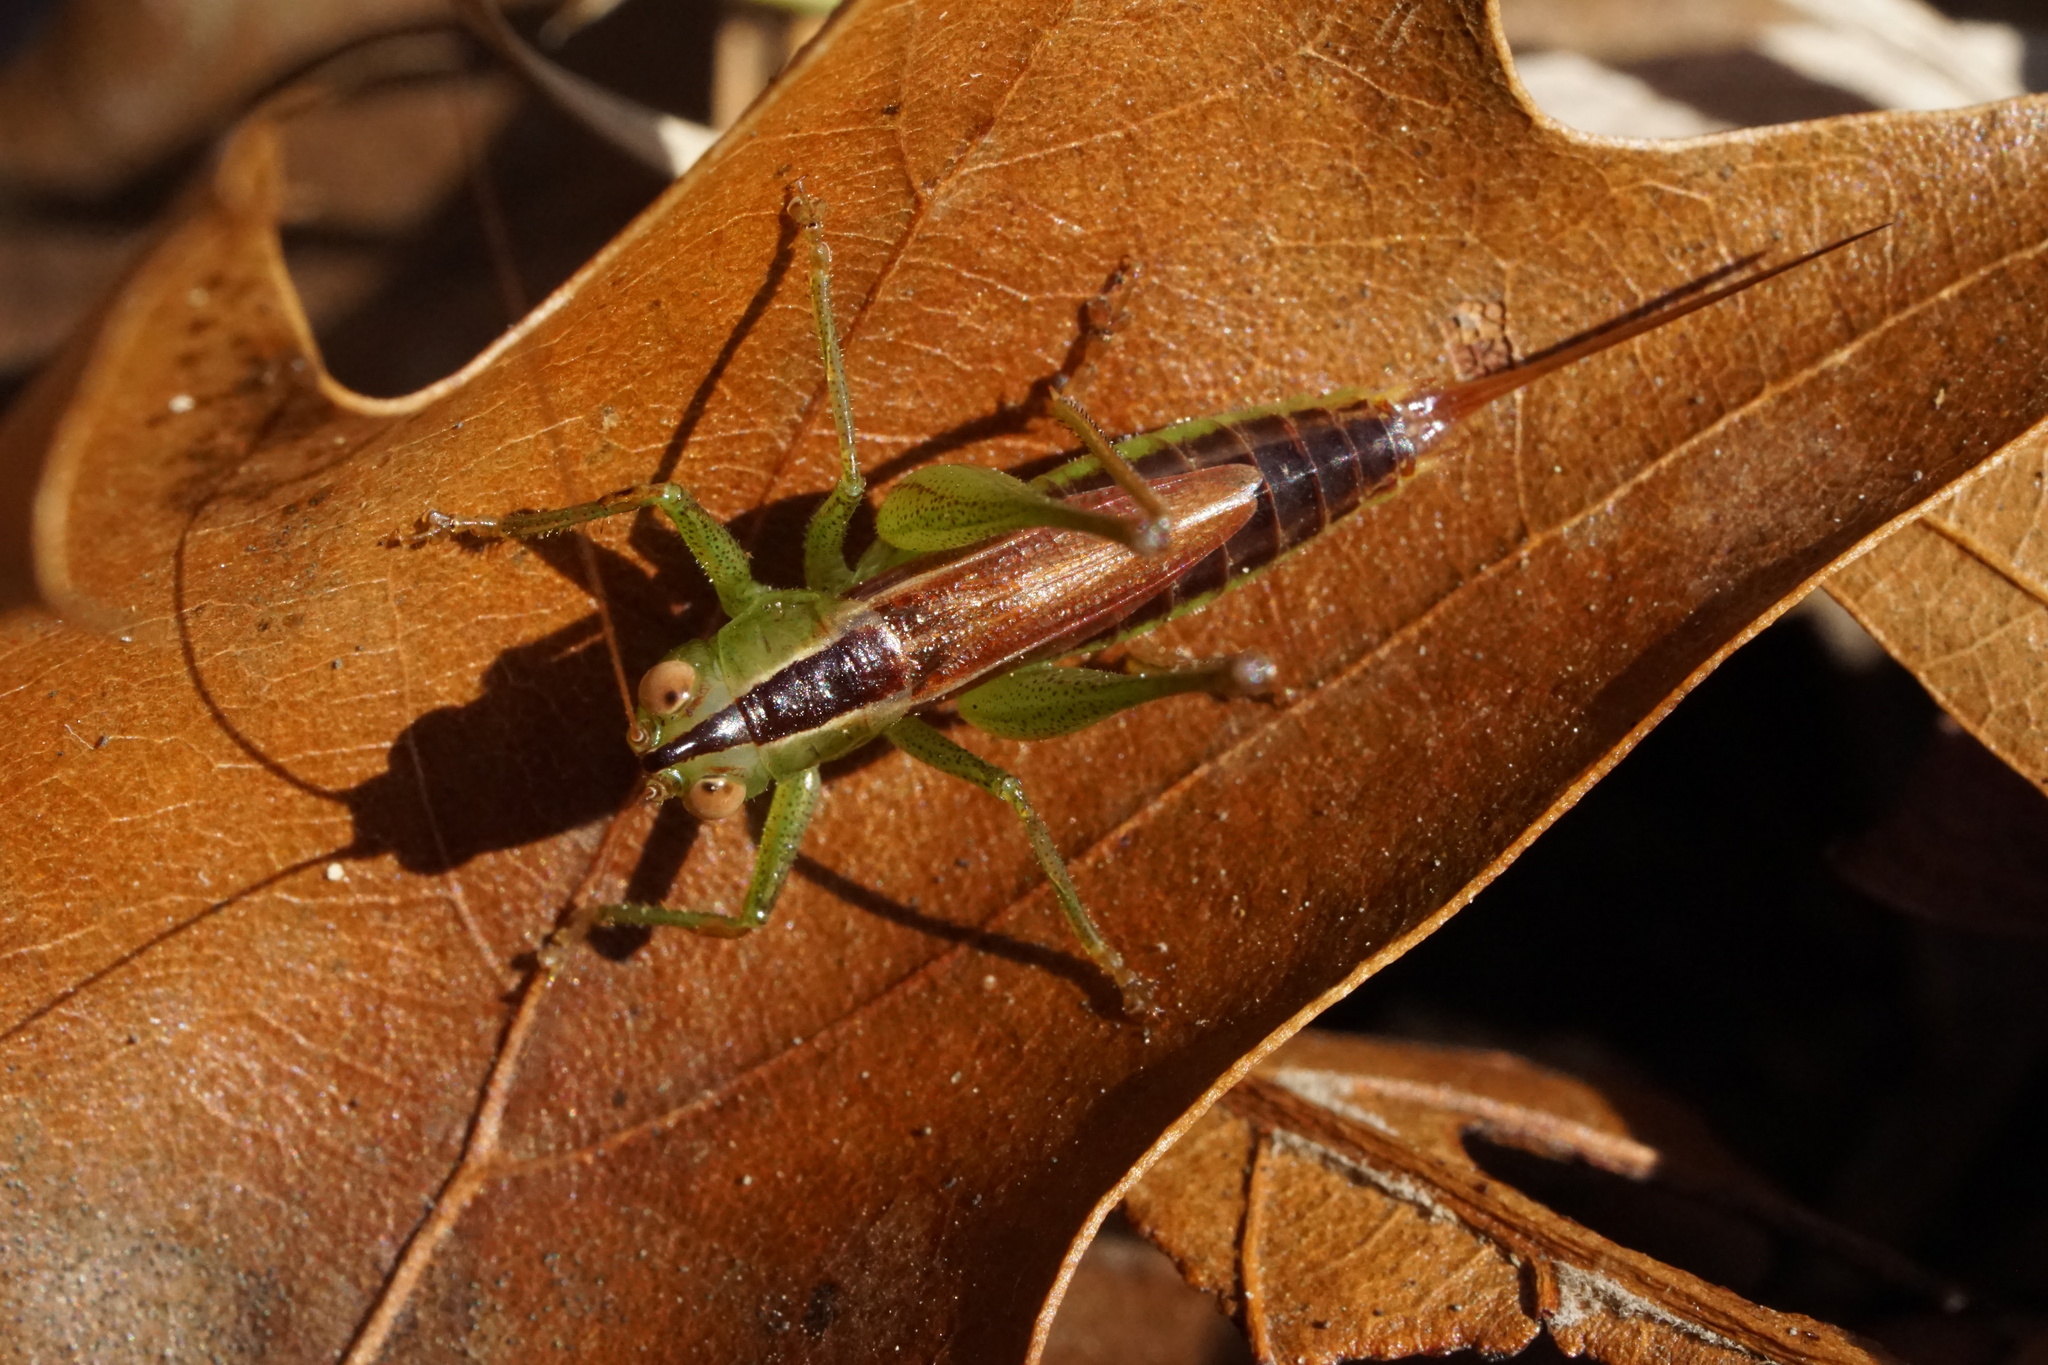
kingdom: Animalia
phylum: Arthropoda
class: Insecta
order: Orthoptera
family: Tettigoniidae
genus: Conocephalus
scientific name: Conocephalus brevipennis
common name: Short-winged meadow katydid
